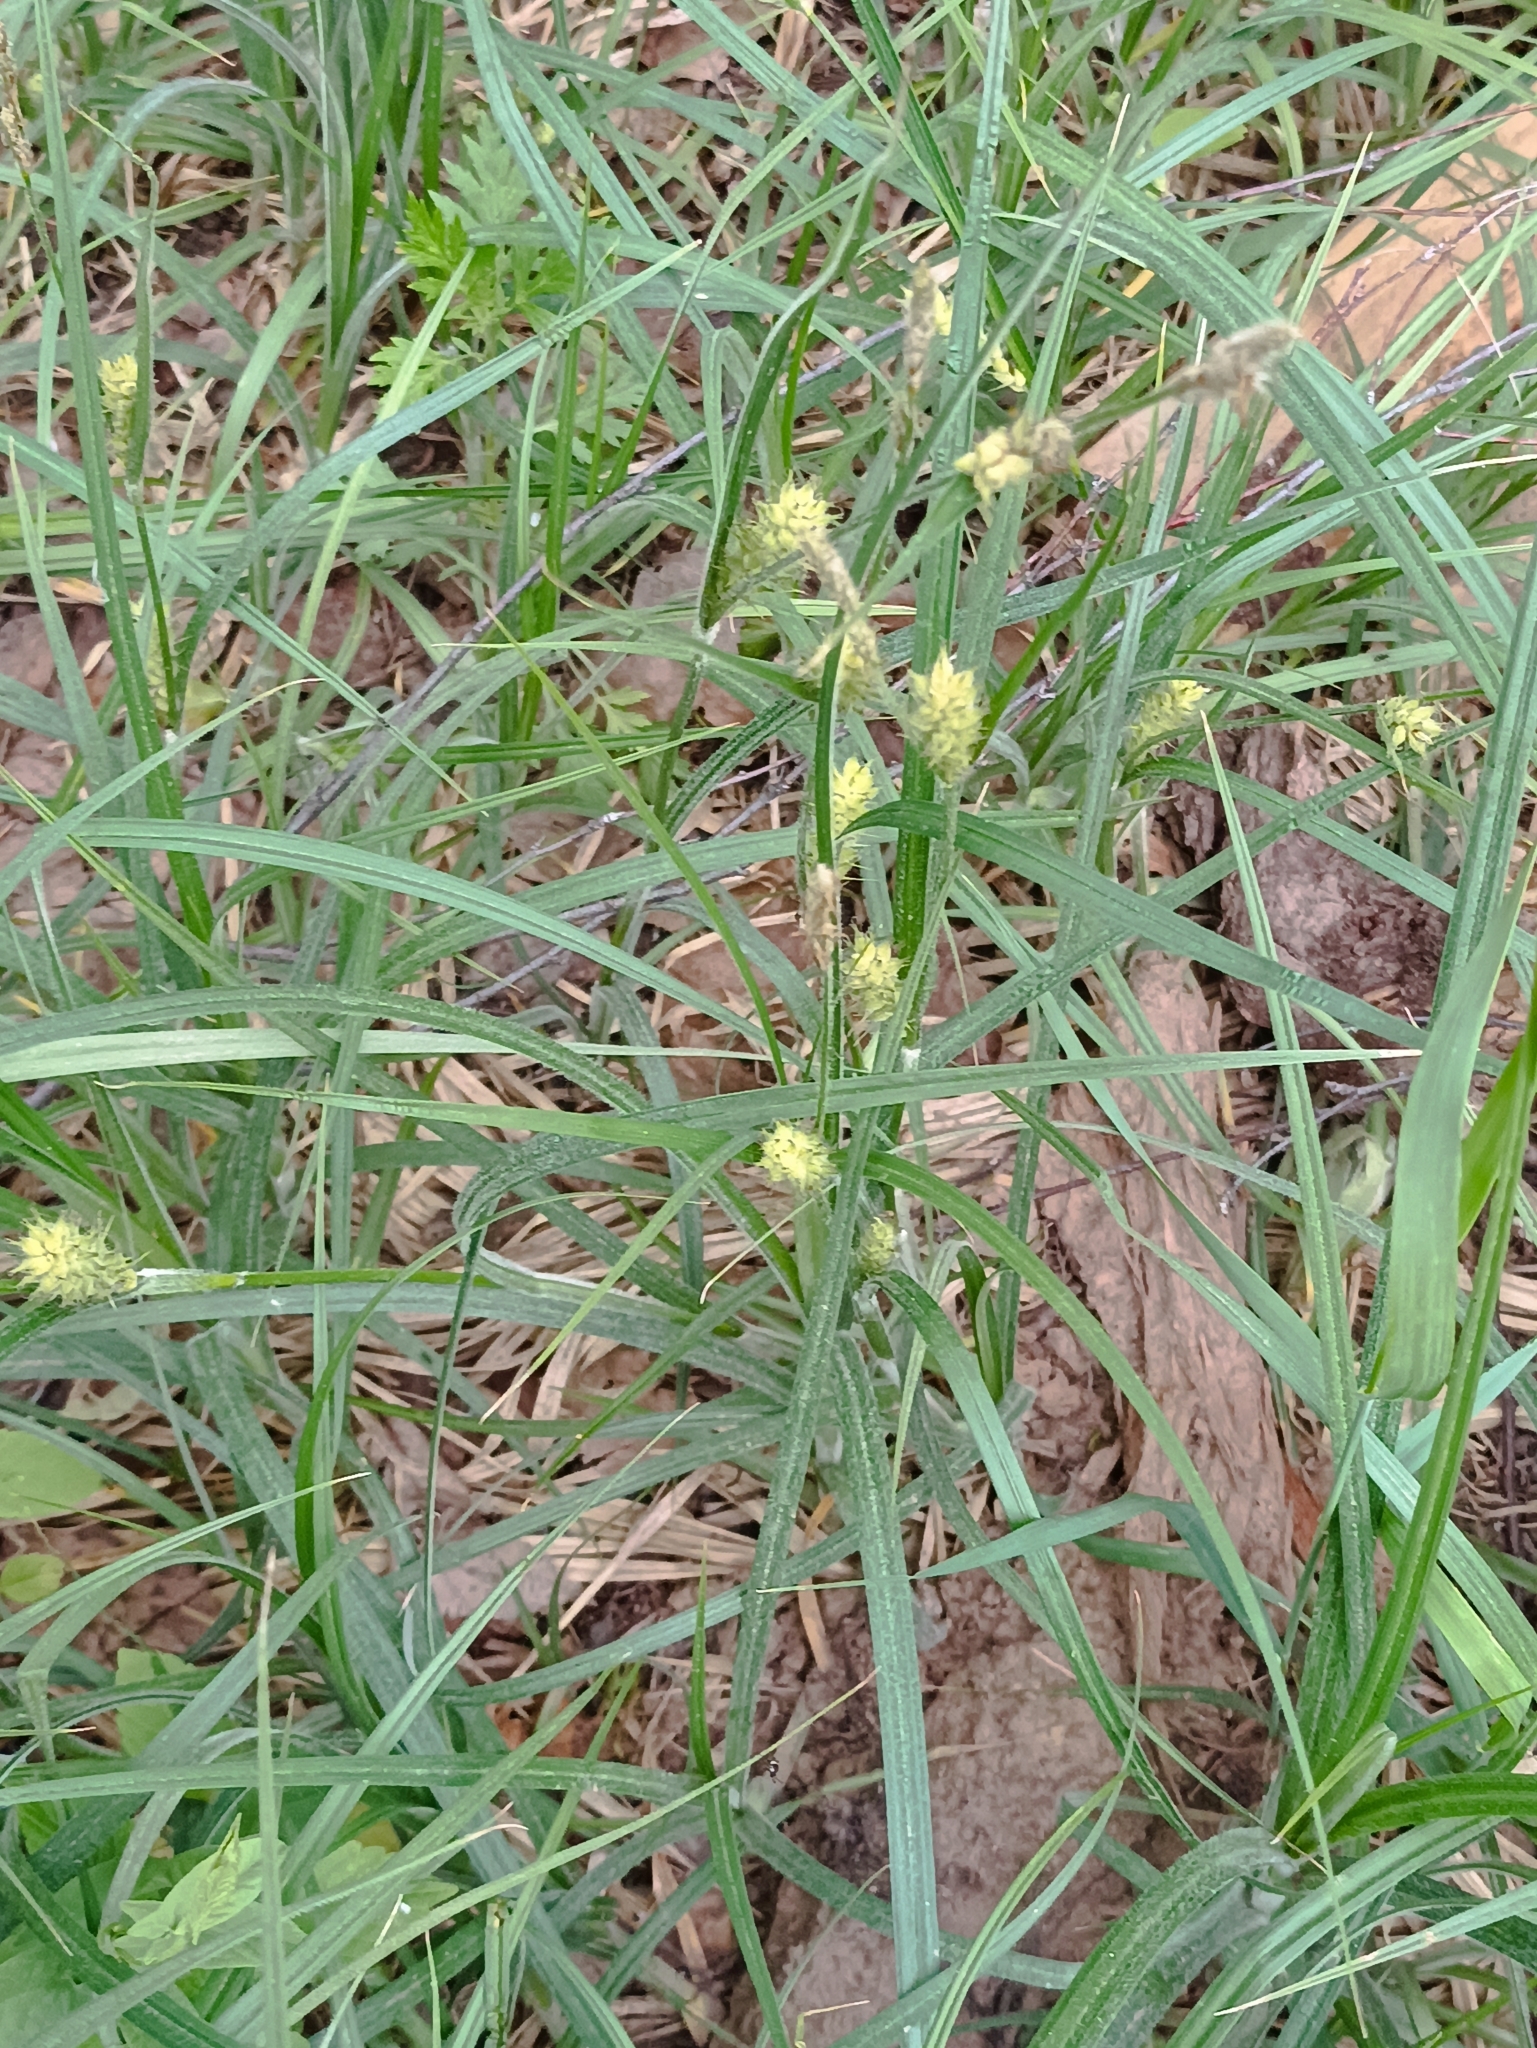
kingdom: Plantae
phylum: Tracheophyta
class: Liliopsida
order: Poales
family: Cyperaceae
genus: Carex
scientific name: Carex hirta
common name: Hairy sedge
